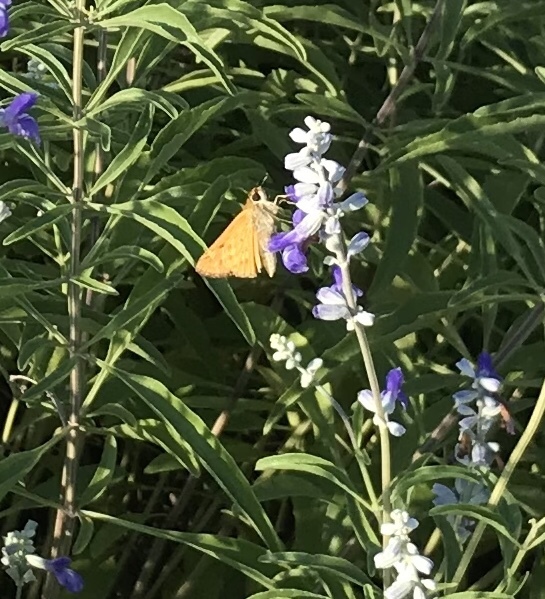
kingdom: Animalia
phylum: Arthropoda
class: Insecta
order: Lepidoptera
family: Hesperiidae
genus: Hylephila
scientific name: Hylephila phyleus
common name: Fiery skipper
